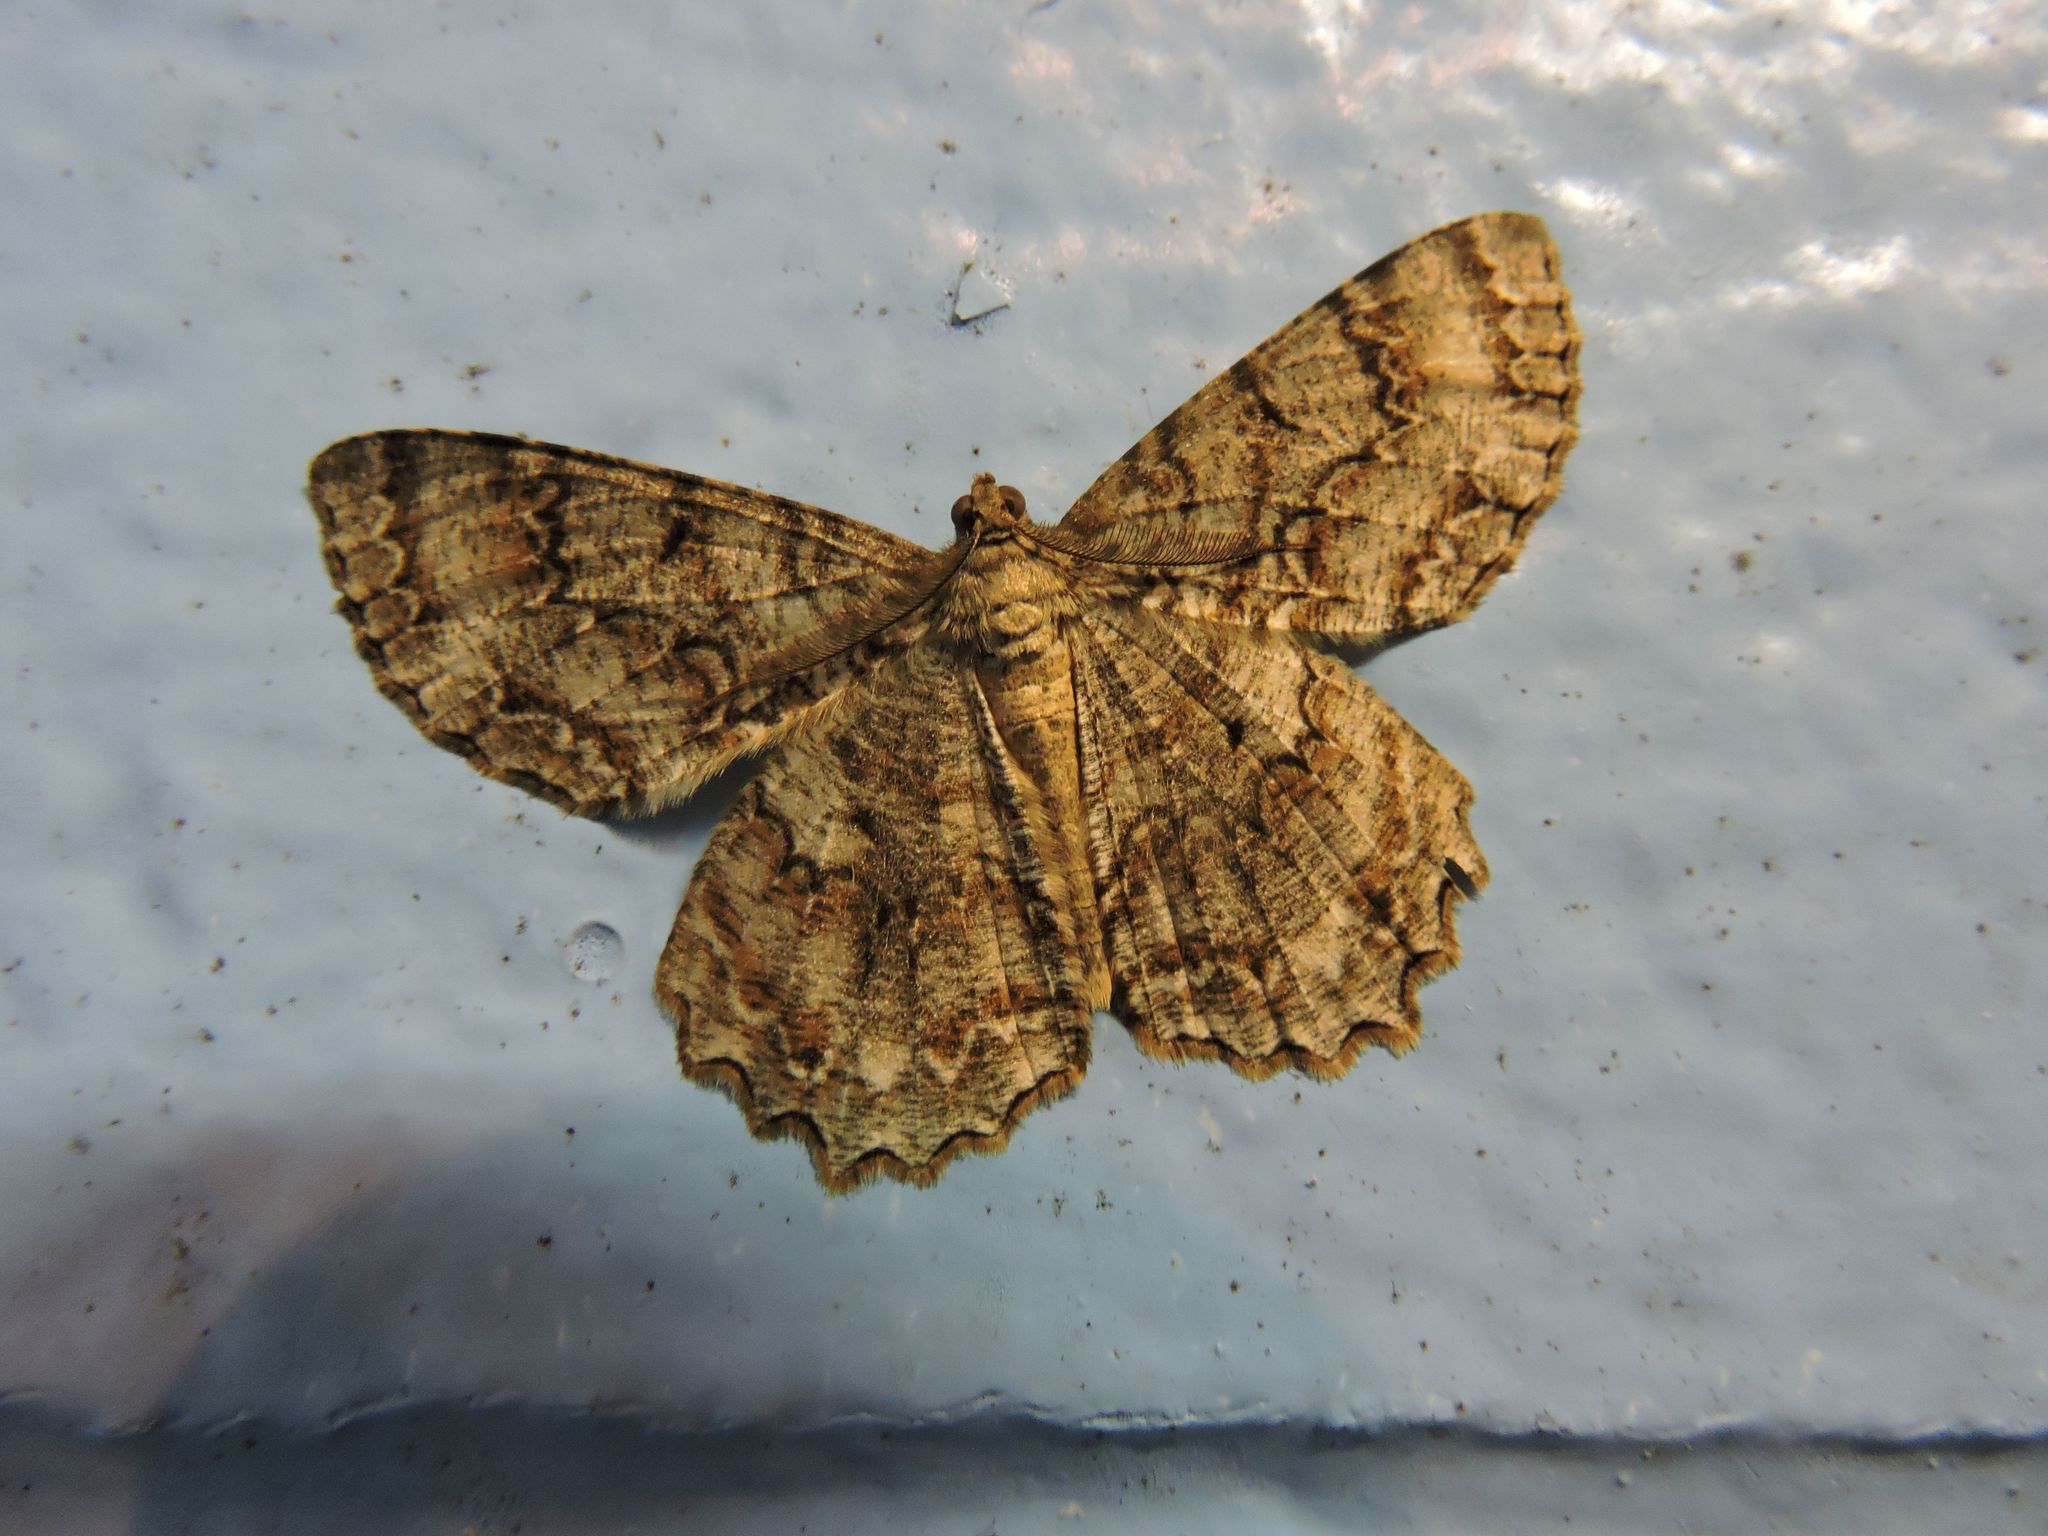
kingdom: Animalia
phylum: Arthropoda
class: Insecta
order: Lepidoptera
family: Geometridae
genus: Epimecis
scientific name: Epimecis hortaria
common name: Tulip-tree beauty
